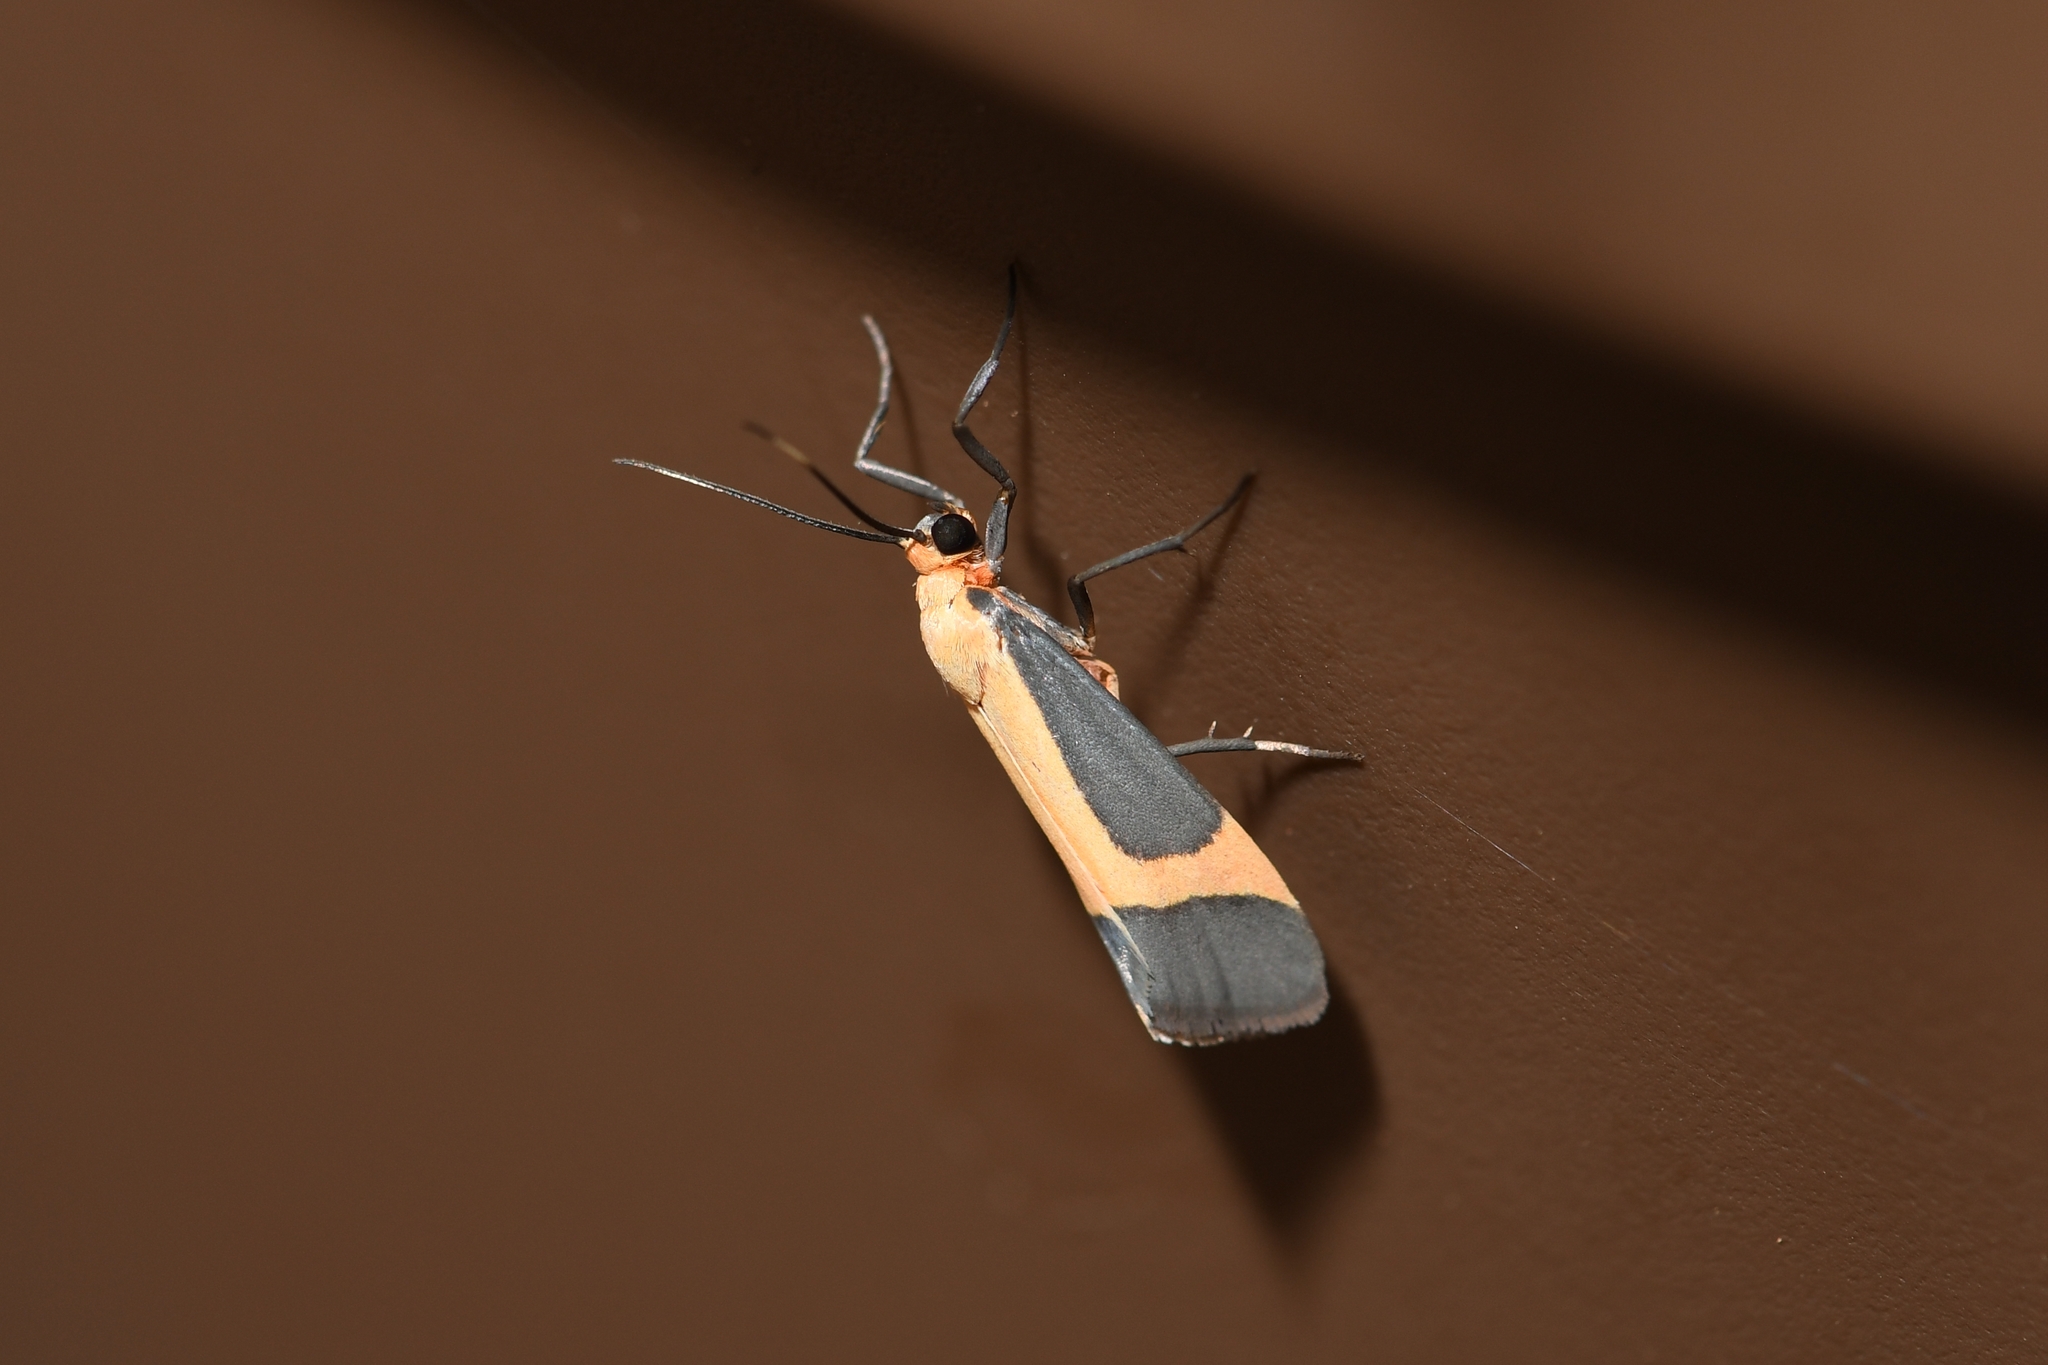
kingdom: Animalia
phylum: Arthropoda
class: Insecta
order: Lepidoptera
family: Erebidae
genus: Cisthene
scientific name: Cisthene angelus
